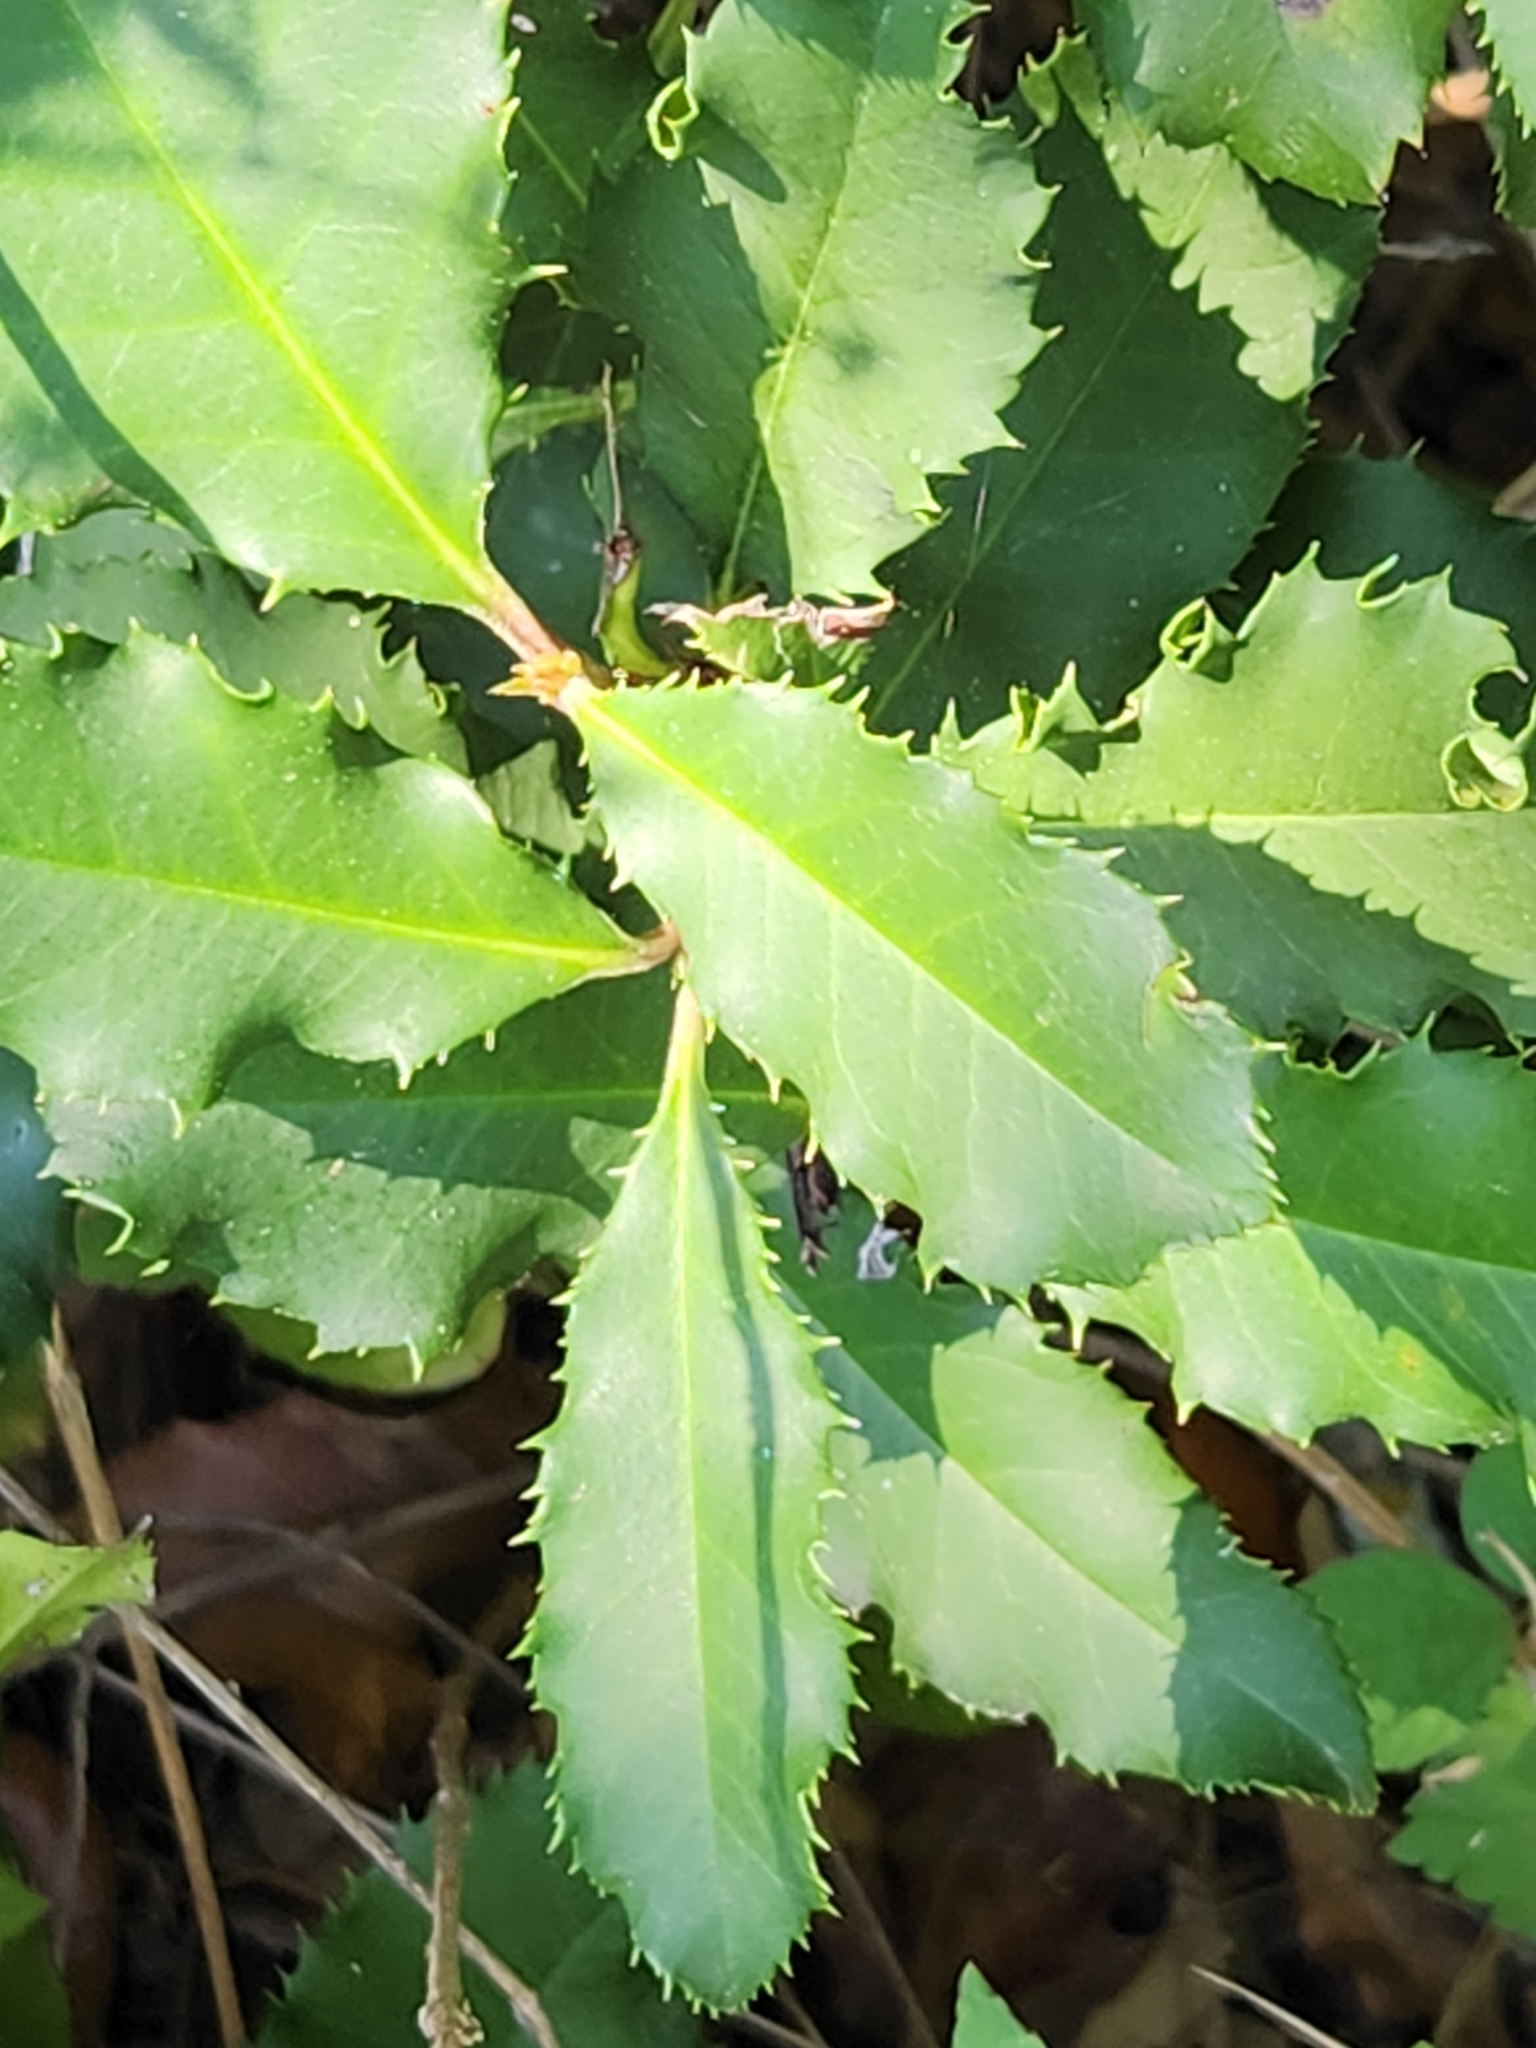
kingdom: Plantae
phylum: Tracheophyta
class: Magnoliopsida
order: Rosales
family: Rosaceae
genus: Photinia
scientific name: Photinia serratifolia
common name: Taiwanese photinia
